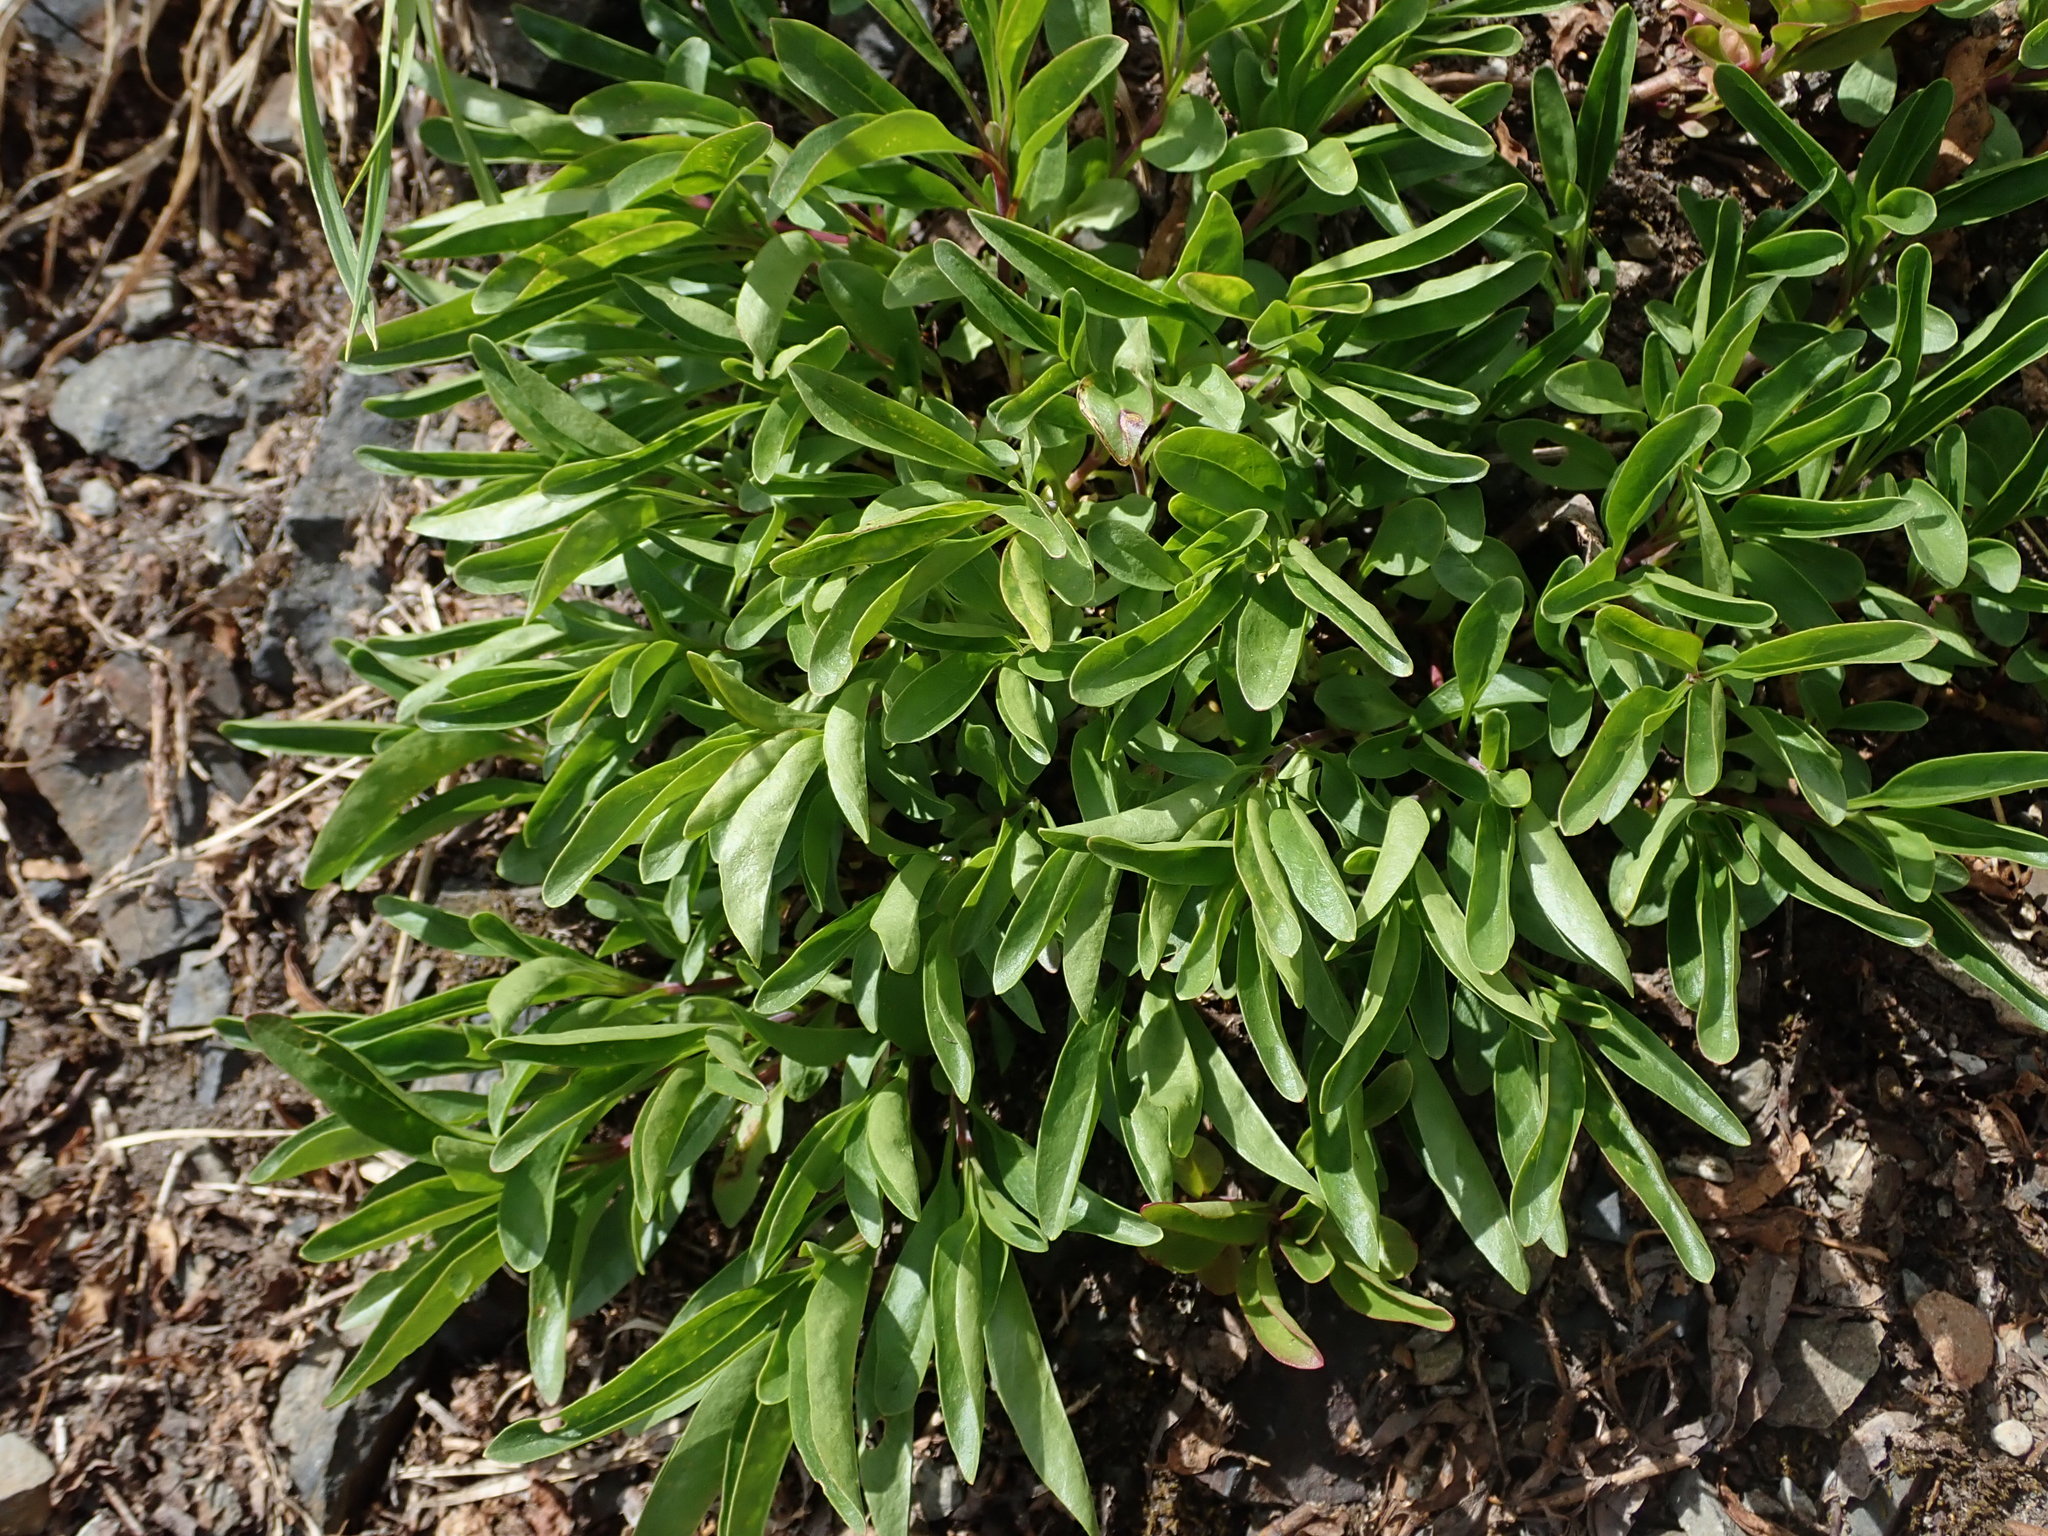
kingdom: Plantae
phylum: Tracheophyta
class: Magnoliopsida
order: Lamiales
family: Plantaginaceae
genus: Penstemon
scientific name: Penstemon procerus
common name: Small-flower penstemon
